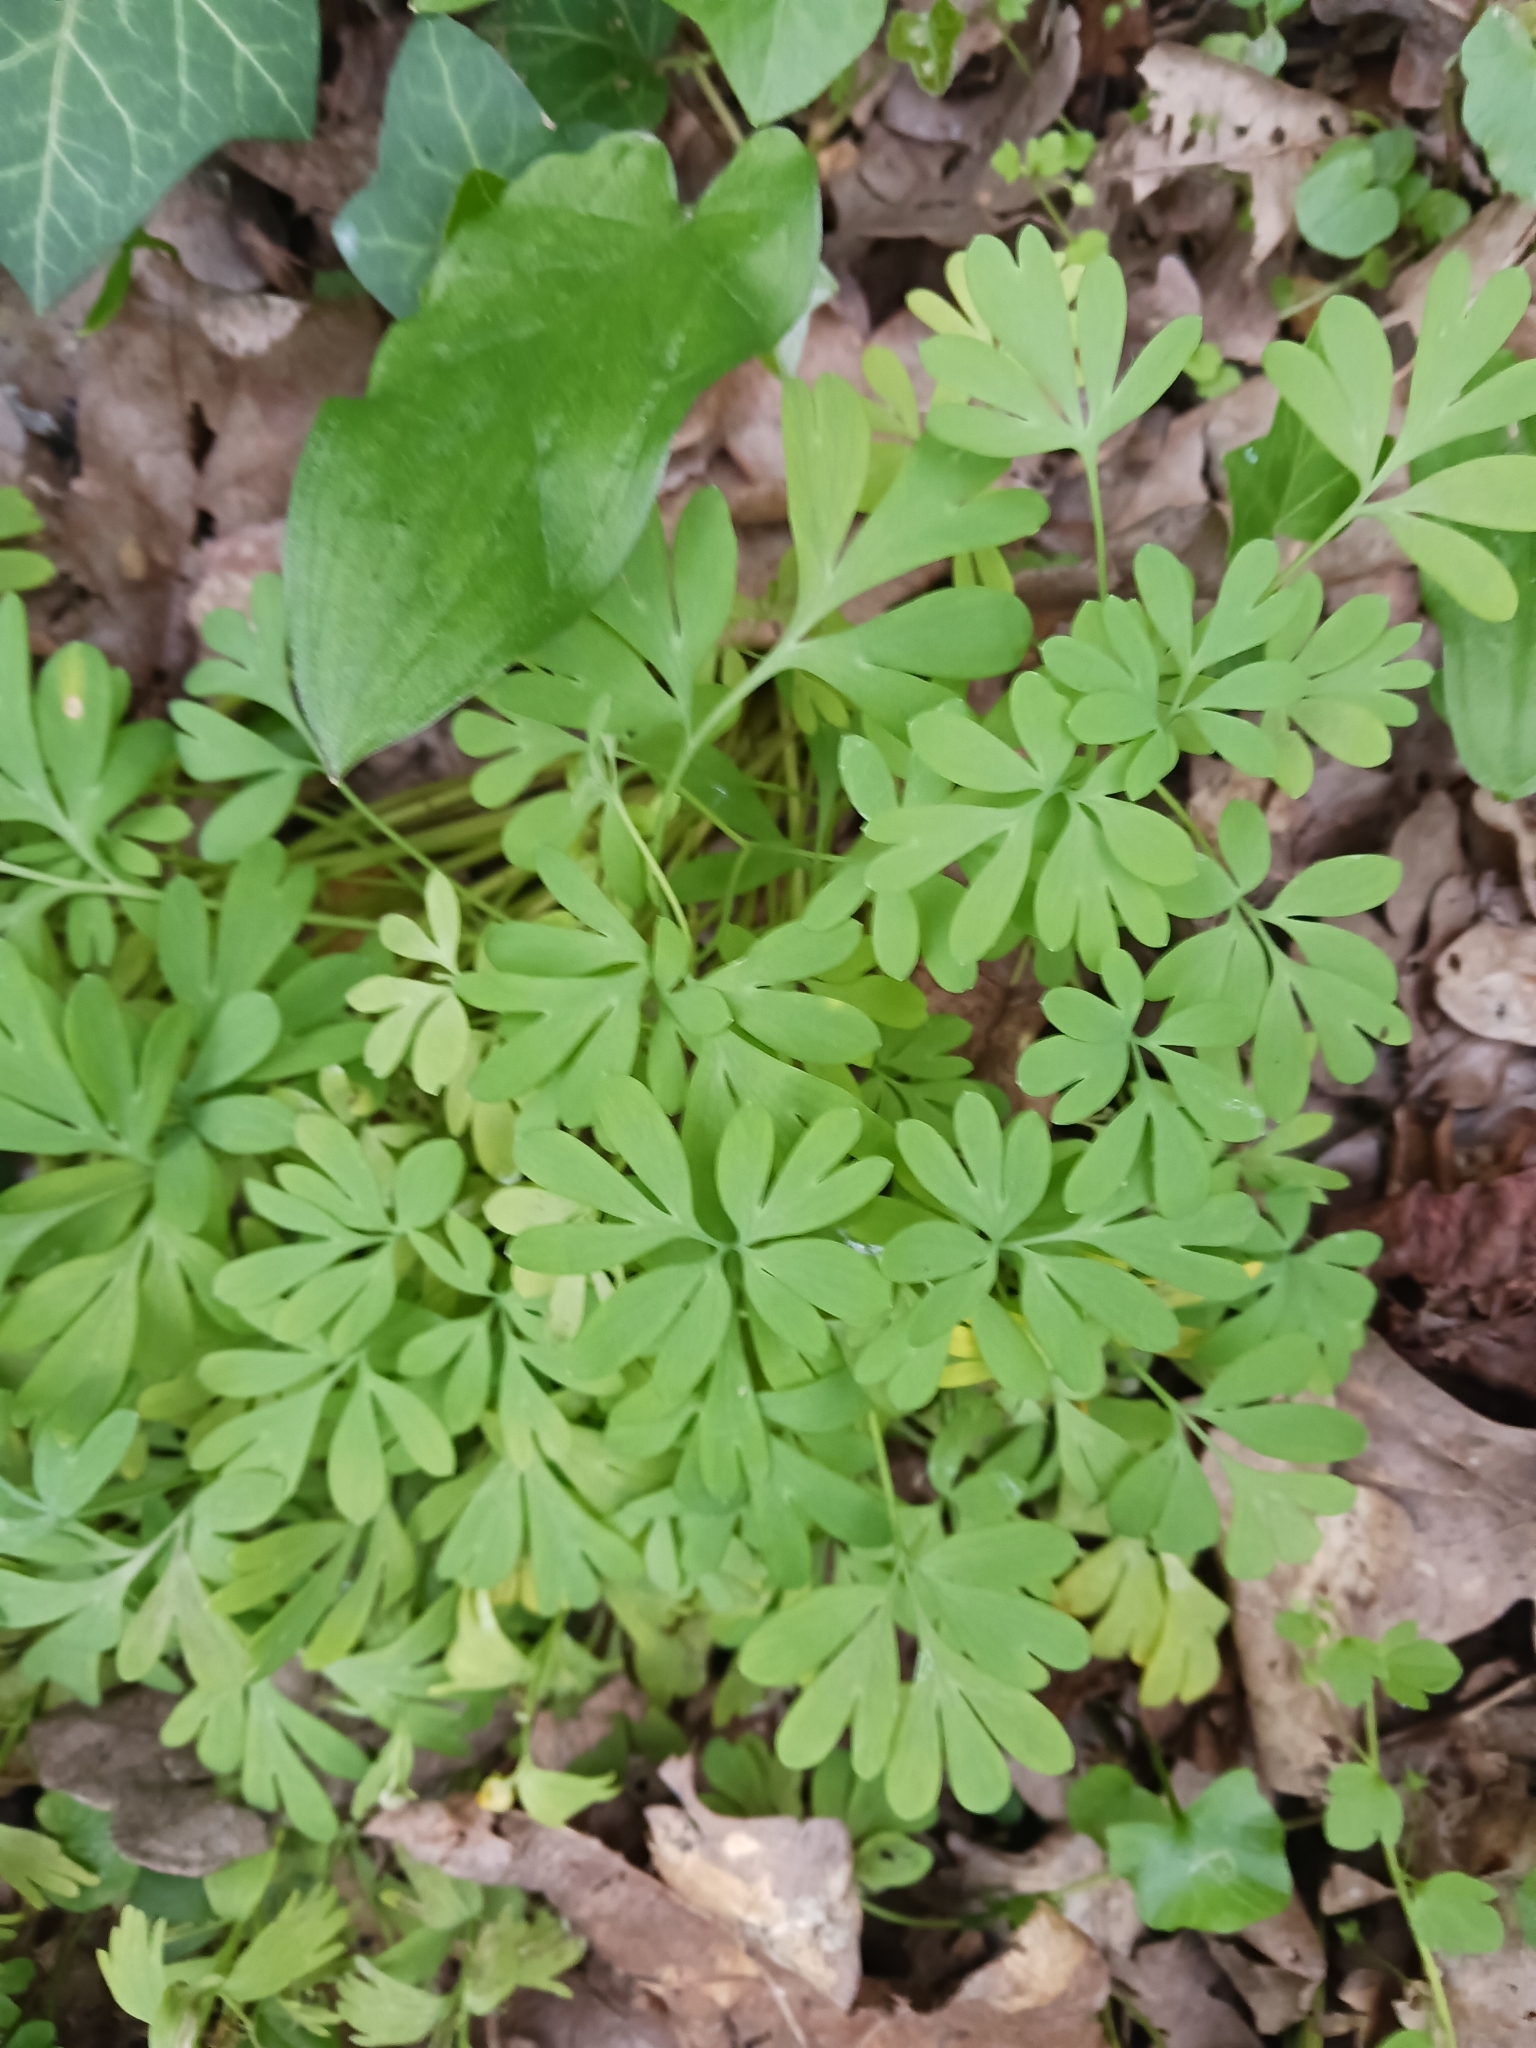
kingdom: Plantae
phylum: Tracheophyta
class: Magnoliopsida
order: Ranunculales
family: Papaveraceae
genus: Corydalis
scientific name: Corydalis solida
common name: Bird-in-a-bush
